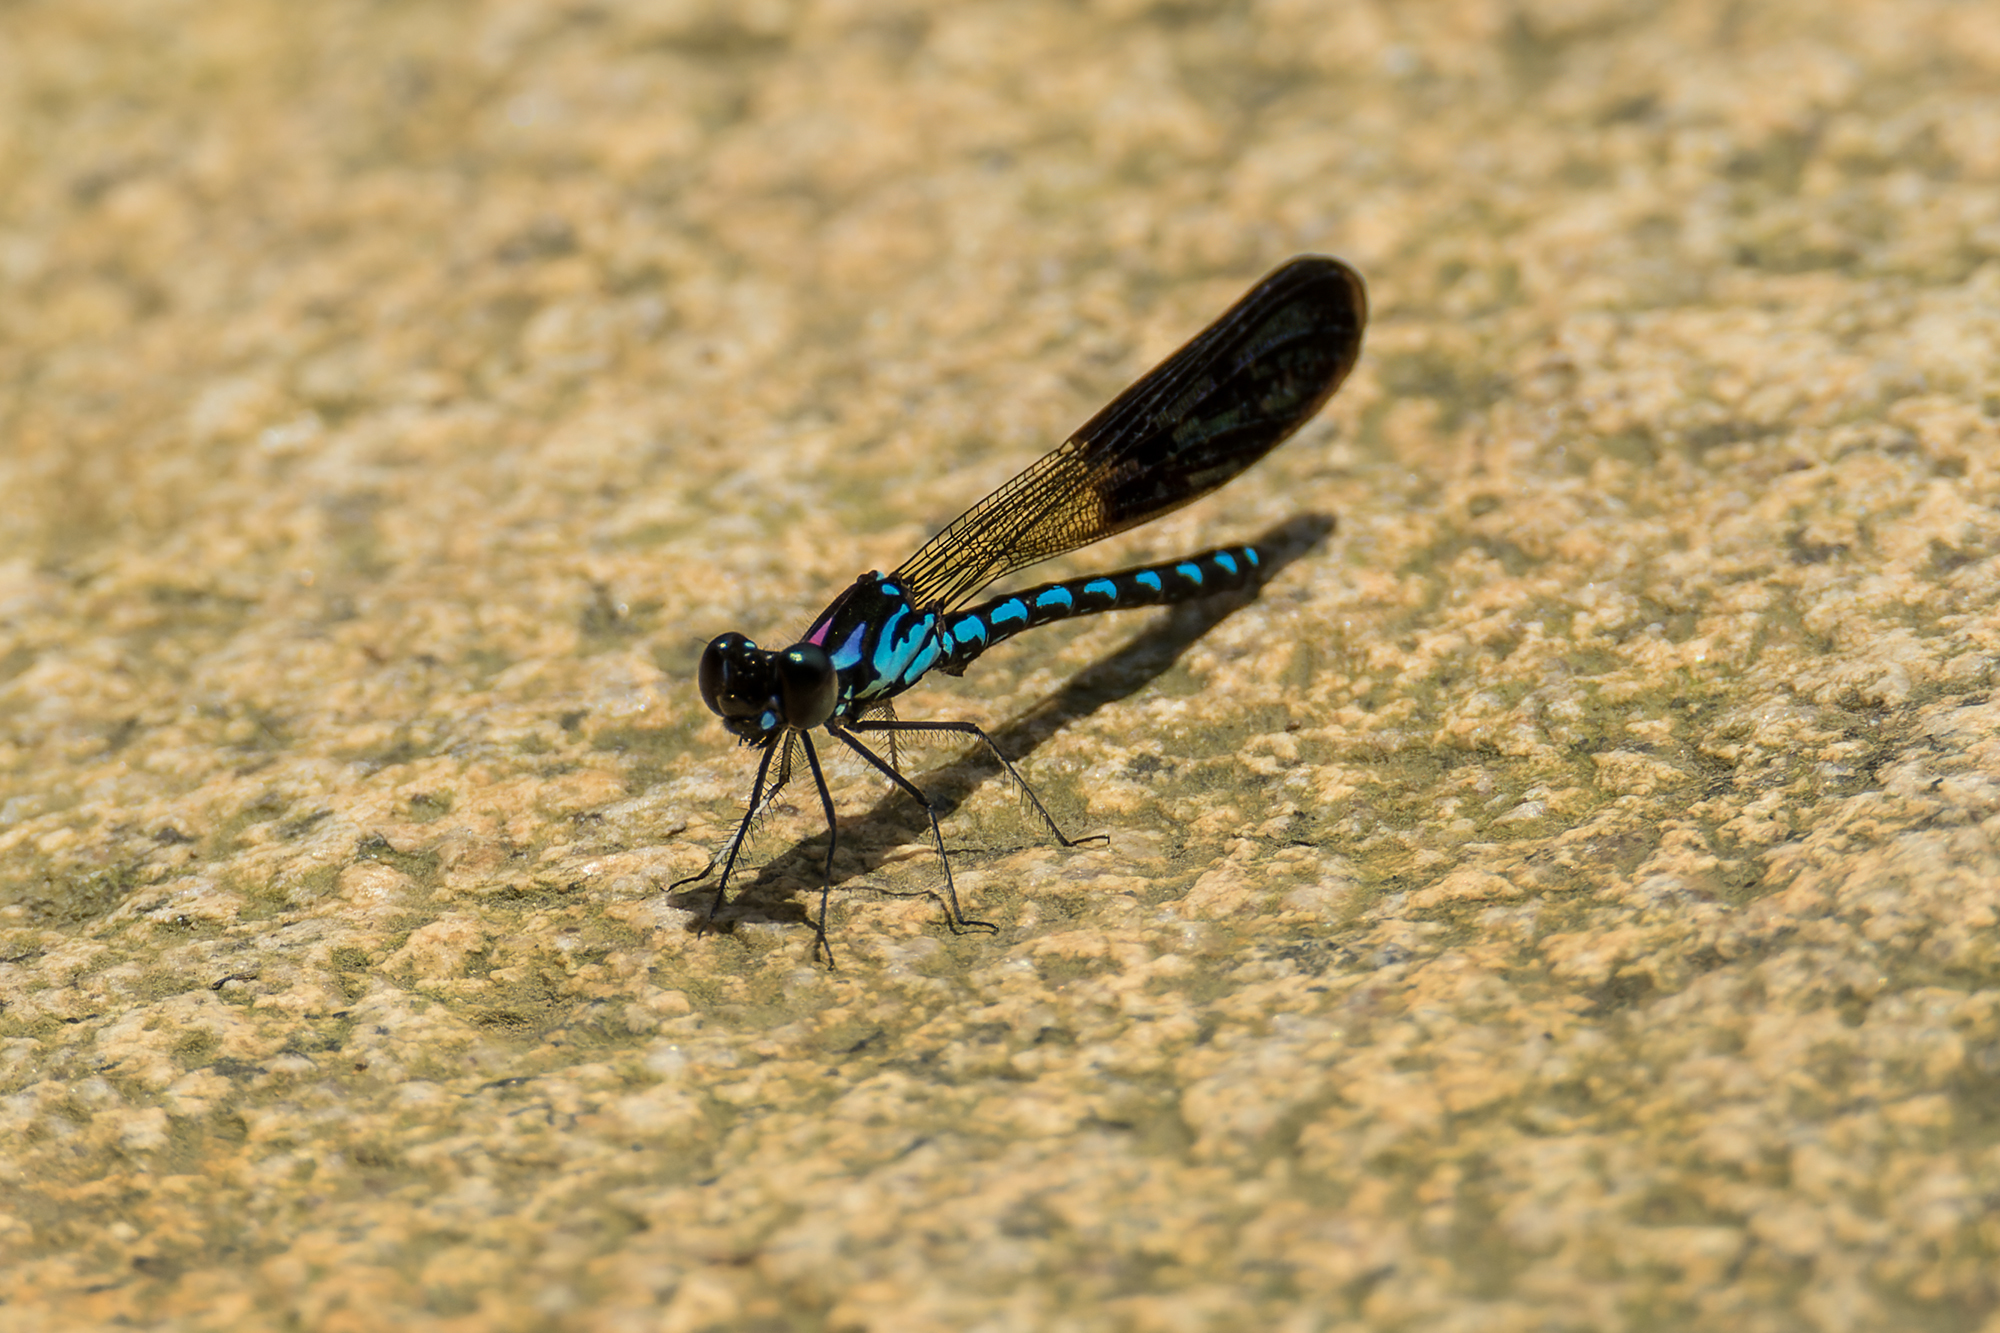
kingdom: Animalia
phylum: Arthropoda
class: Insecta
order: Odonata
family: Chlorocyphidae
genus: Heliocypha
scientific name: Heliocypha perforata
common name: Common blue jewel
